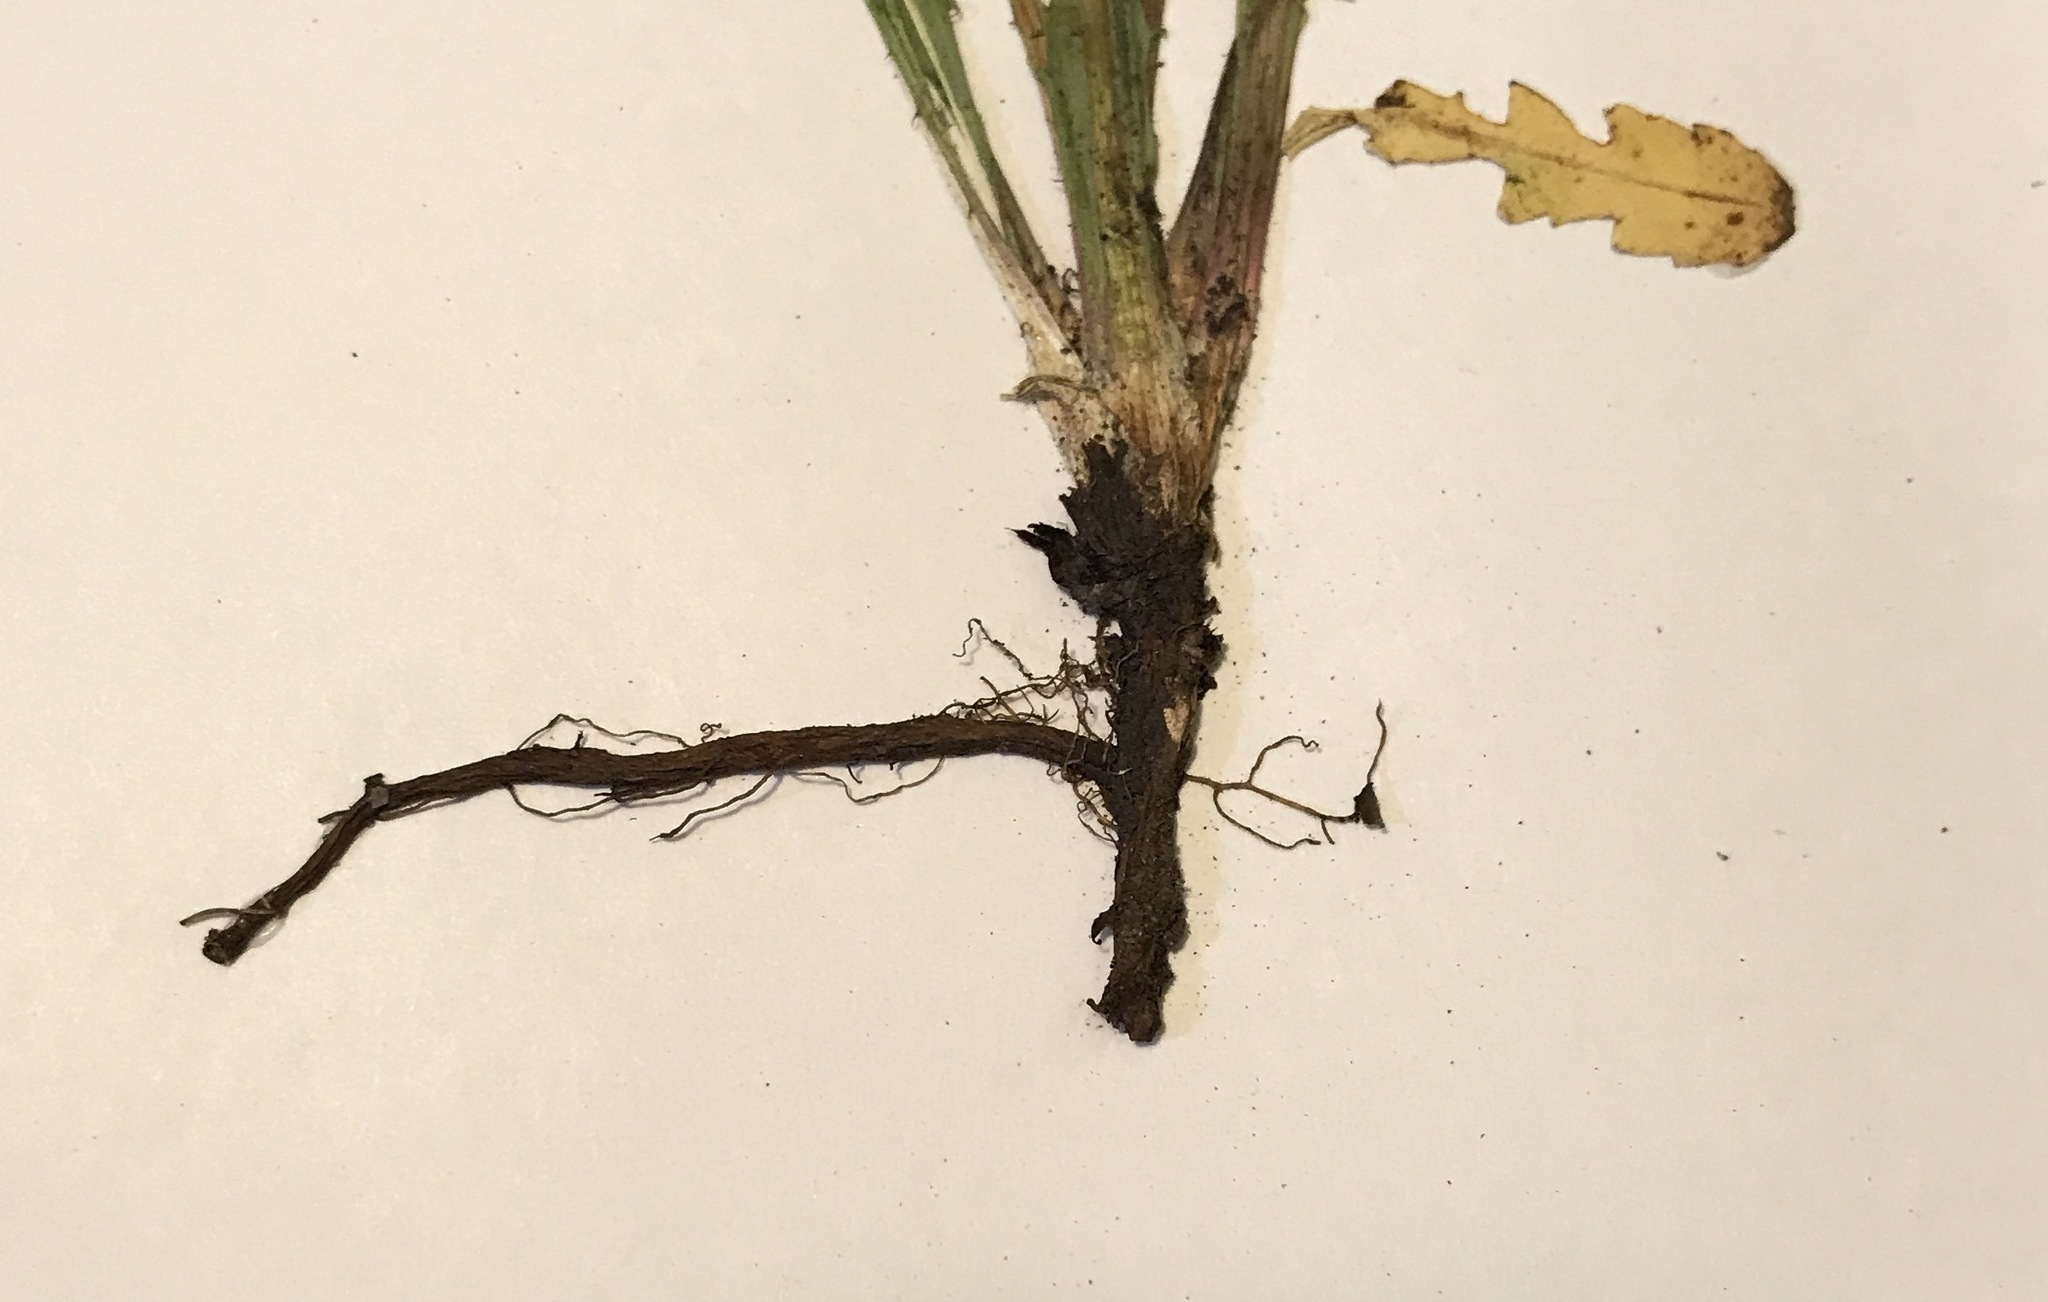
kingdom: Plantae
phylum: Tracheophyta
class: Magnoliopsida
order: Asterales
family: Asteraceae
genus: Taraxacum
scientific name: Taraxacum officinale
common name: Common dandelion
